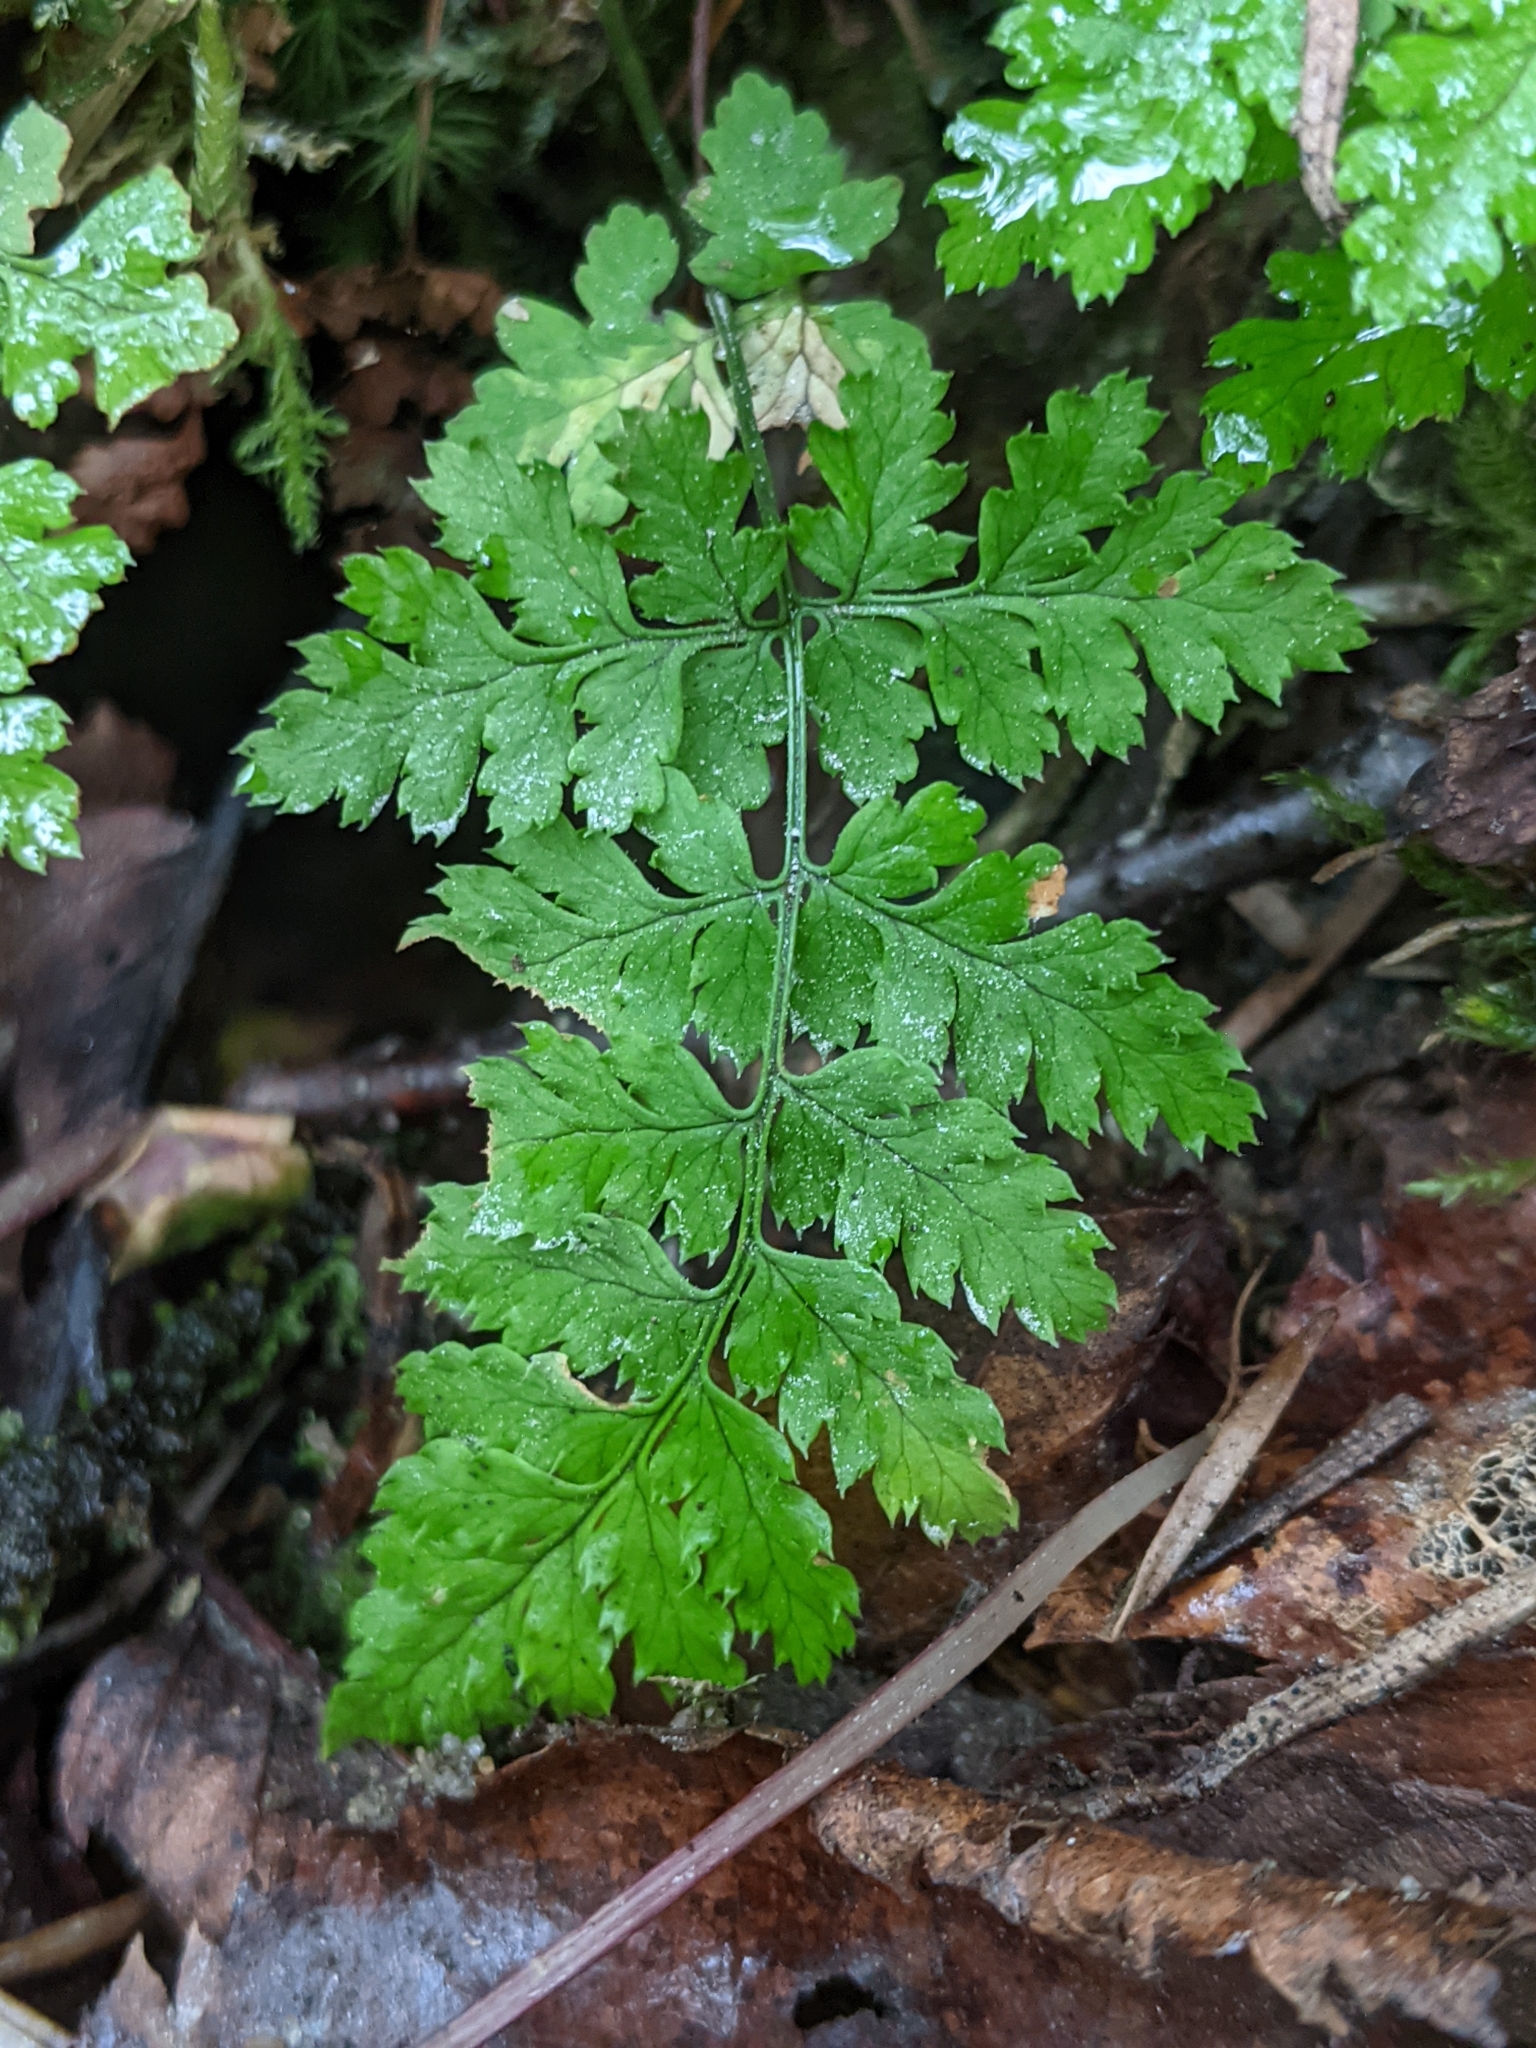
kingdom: Plantae
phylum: Tracheophyta
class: Polypodiopsida
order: Polypodiales
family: Dryopteridaceae
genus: Dryopteris
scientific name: Dryopteris intermedia
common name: Evergreen wood fern
